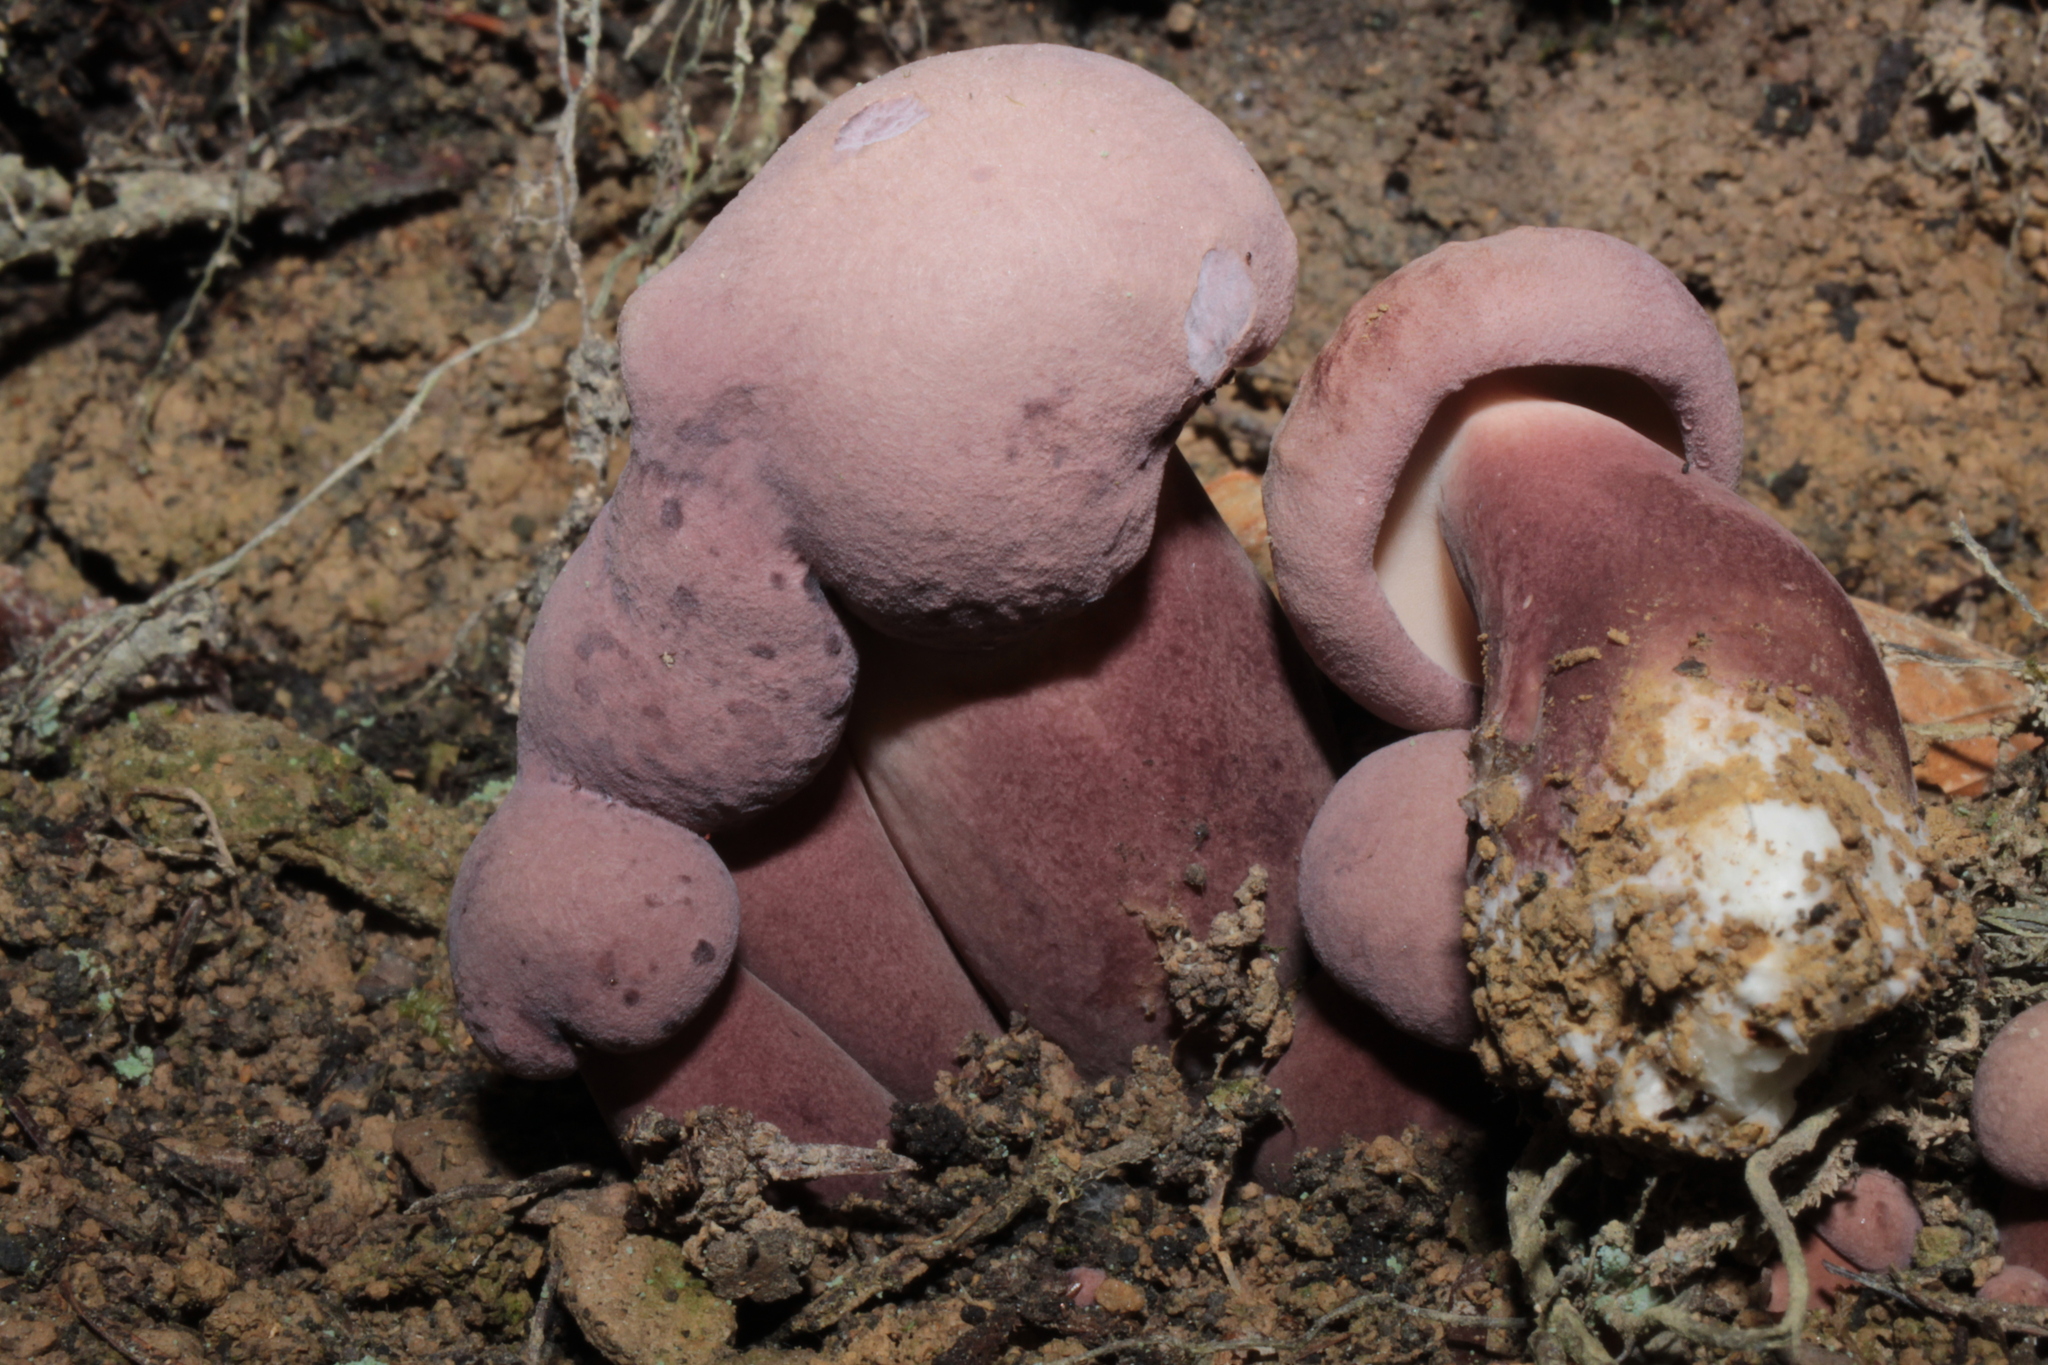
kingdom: Fungi
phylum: Basidiomycota
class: Agaricomycetes
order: Boletales
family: Boletaceae
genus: Tylopilus
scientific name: Tylopilus violatinctus
